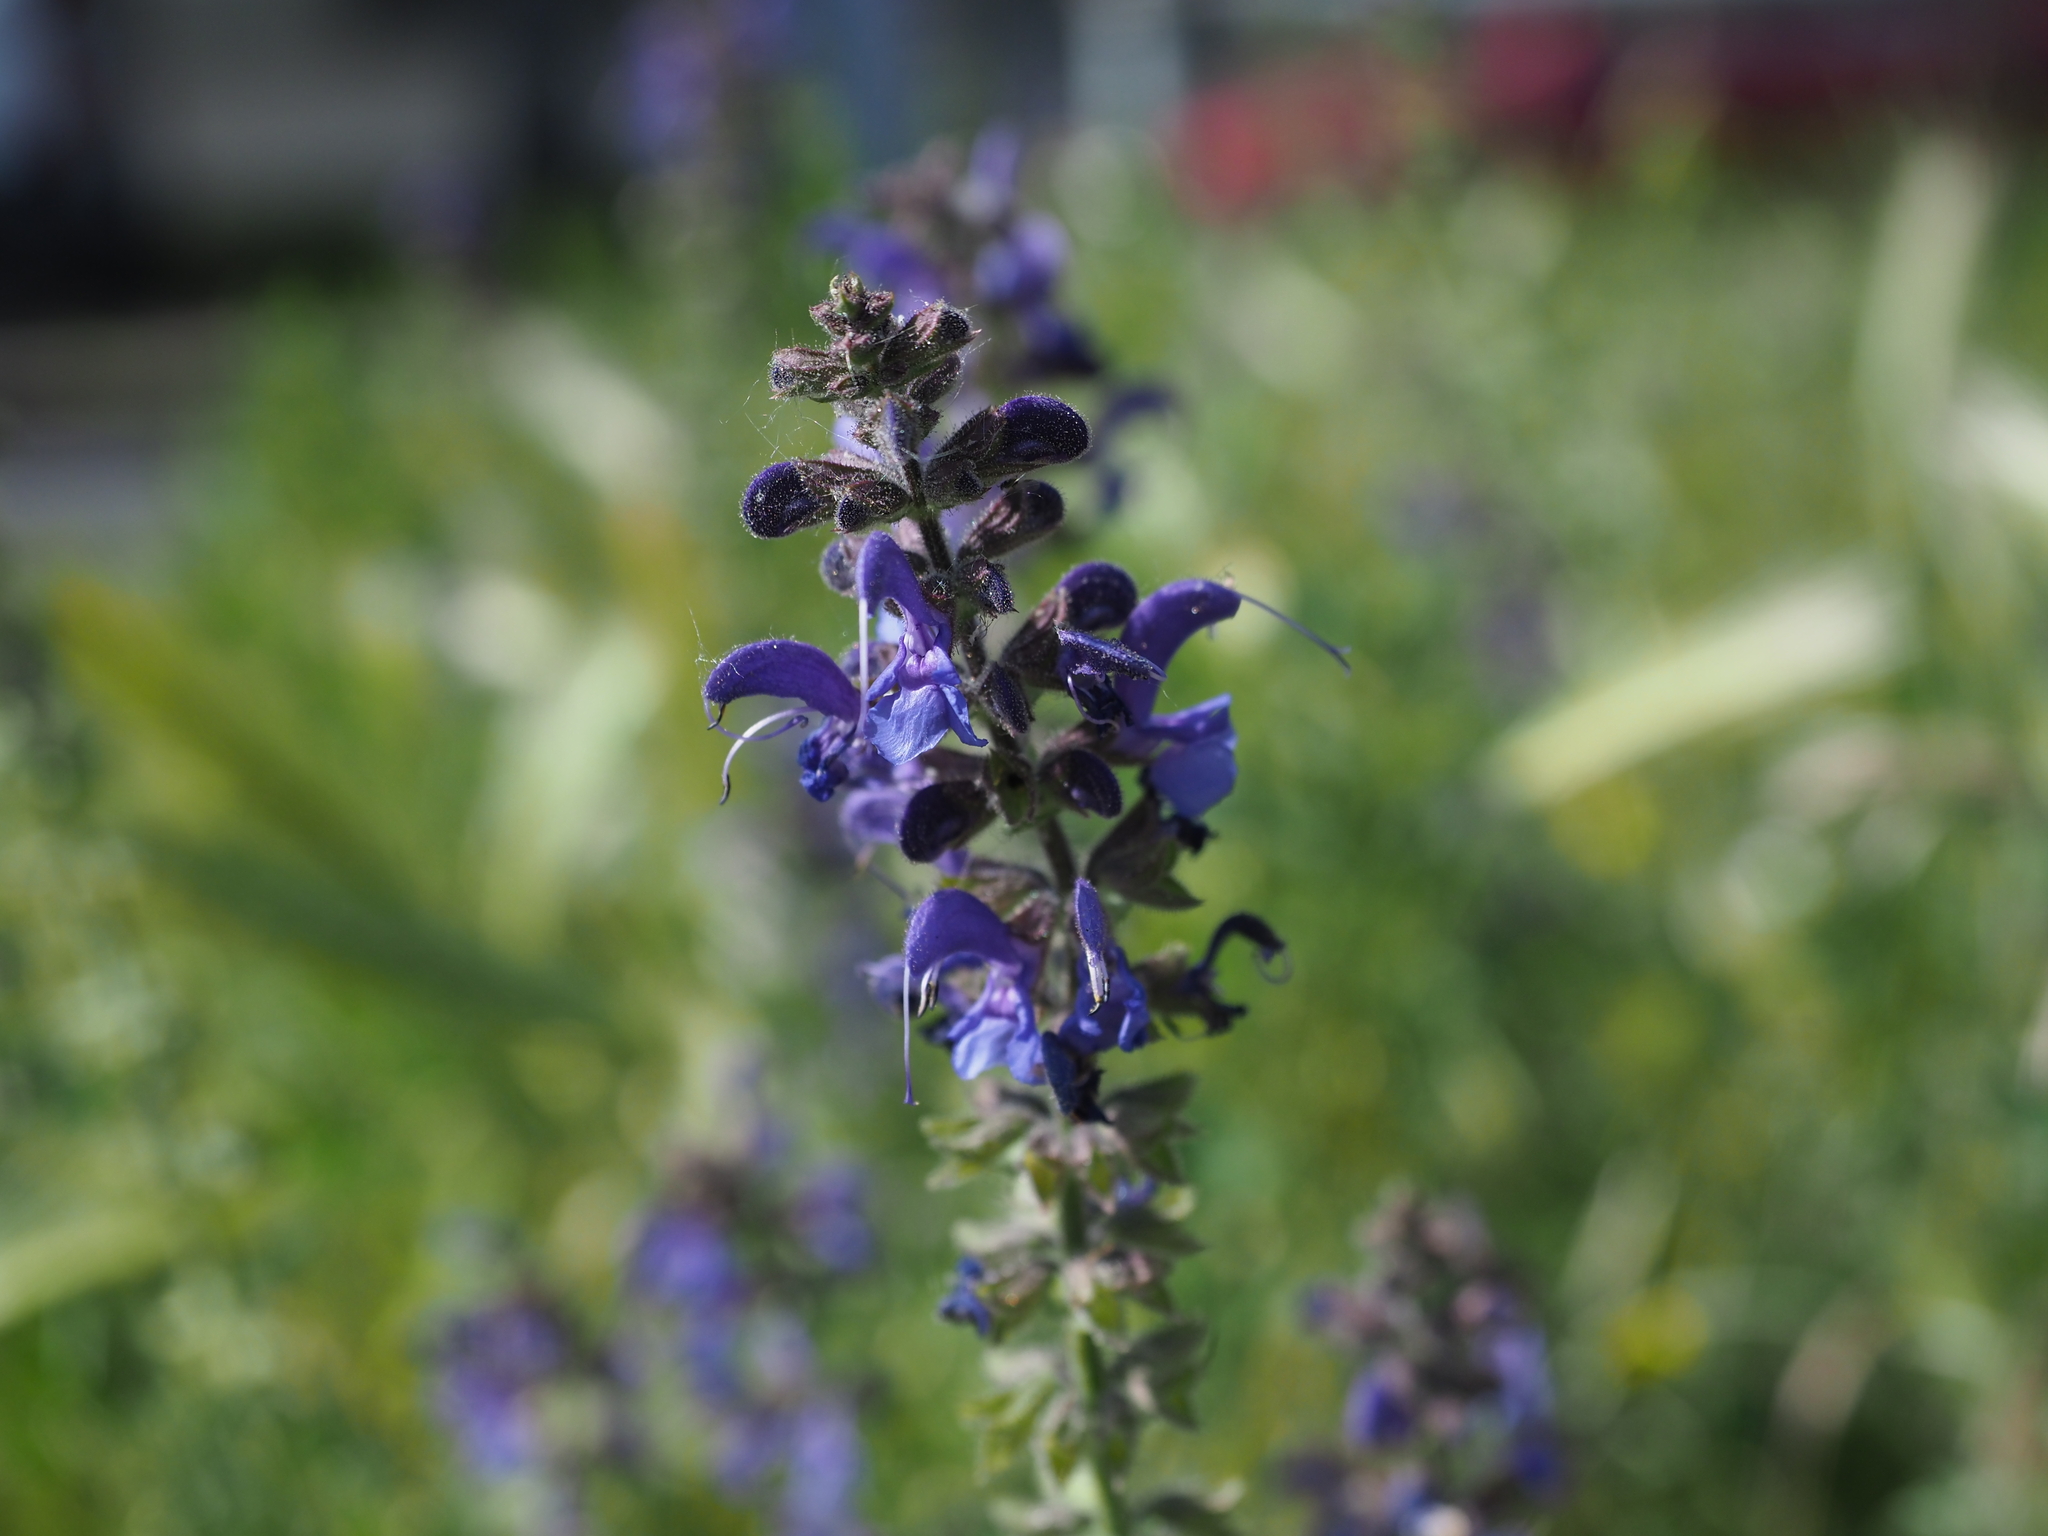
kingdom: Plantae
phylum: Tracheophyta
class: Magnoliopsida
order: Lamiales
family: Lamiaceae
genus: Salvia
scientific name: Salvia pratensis
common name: Meadow sage
